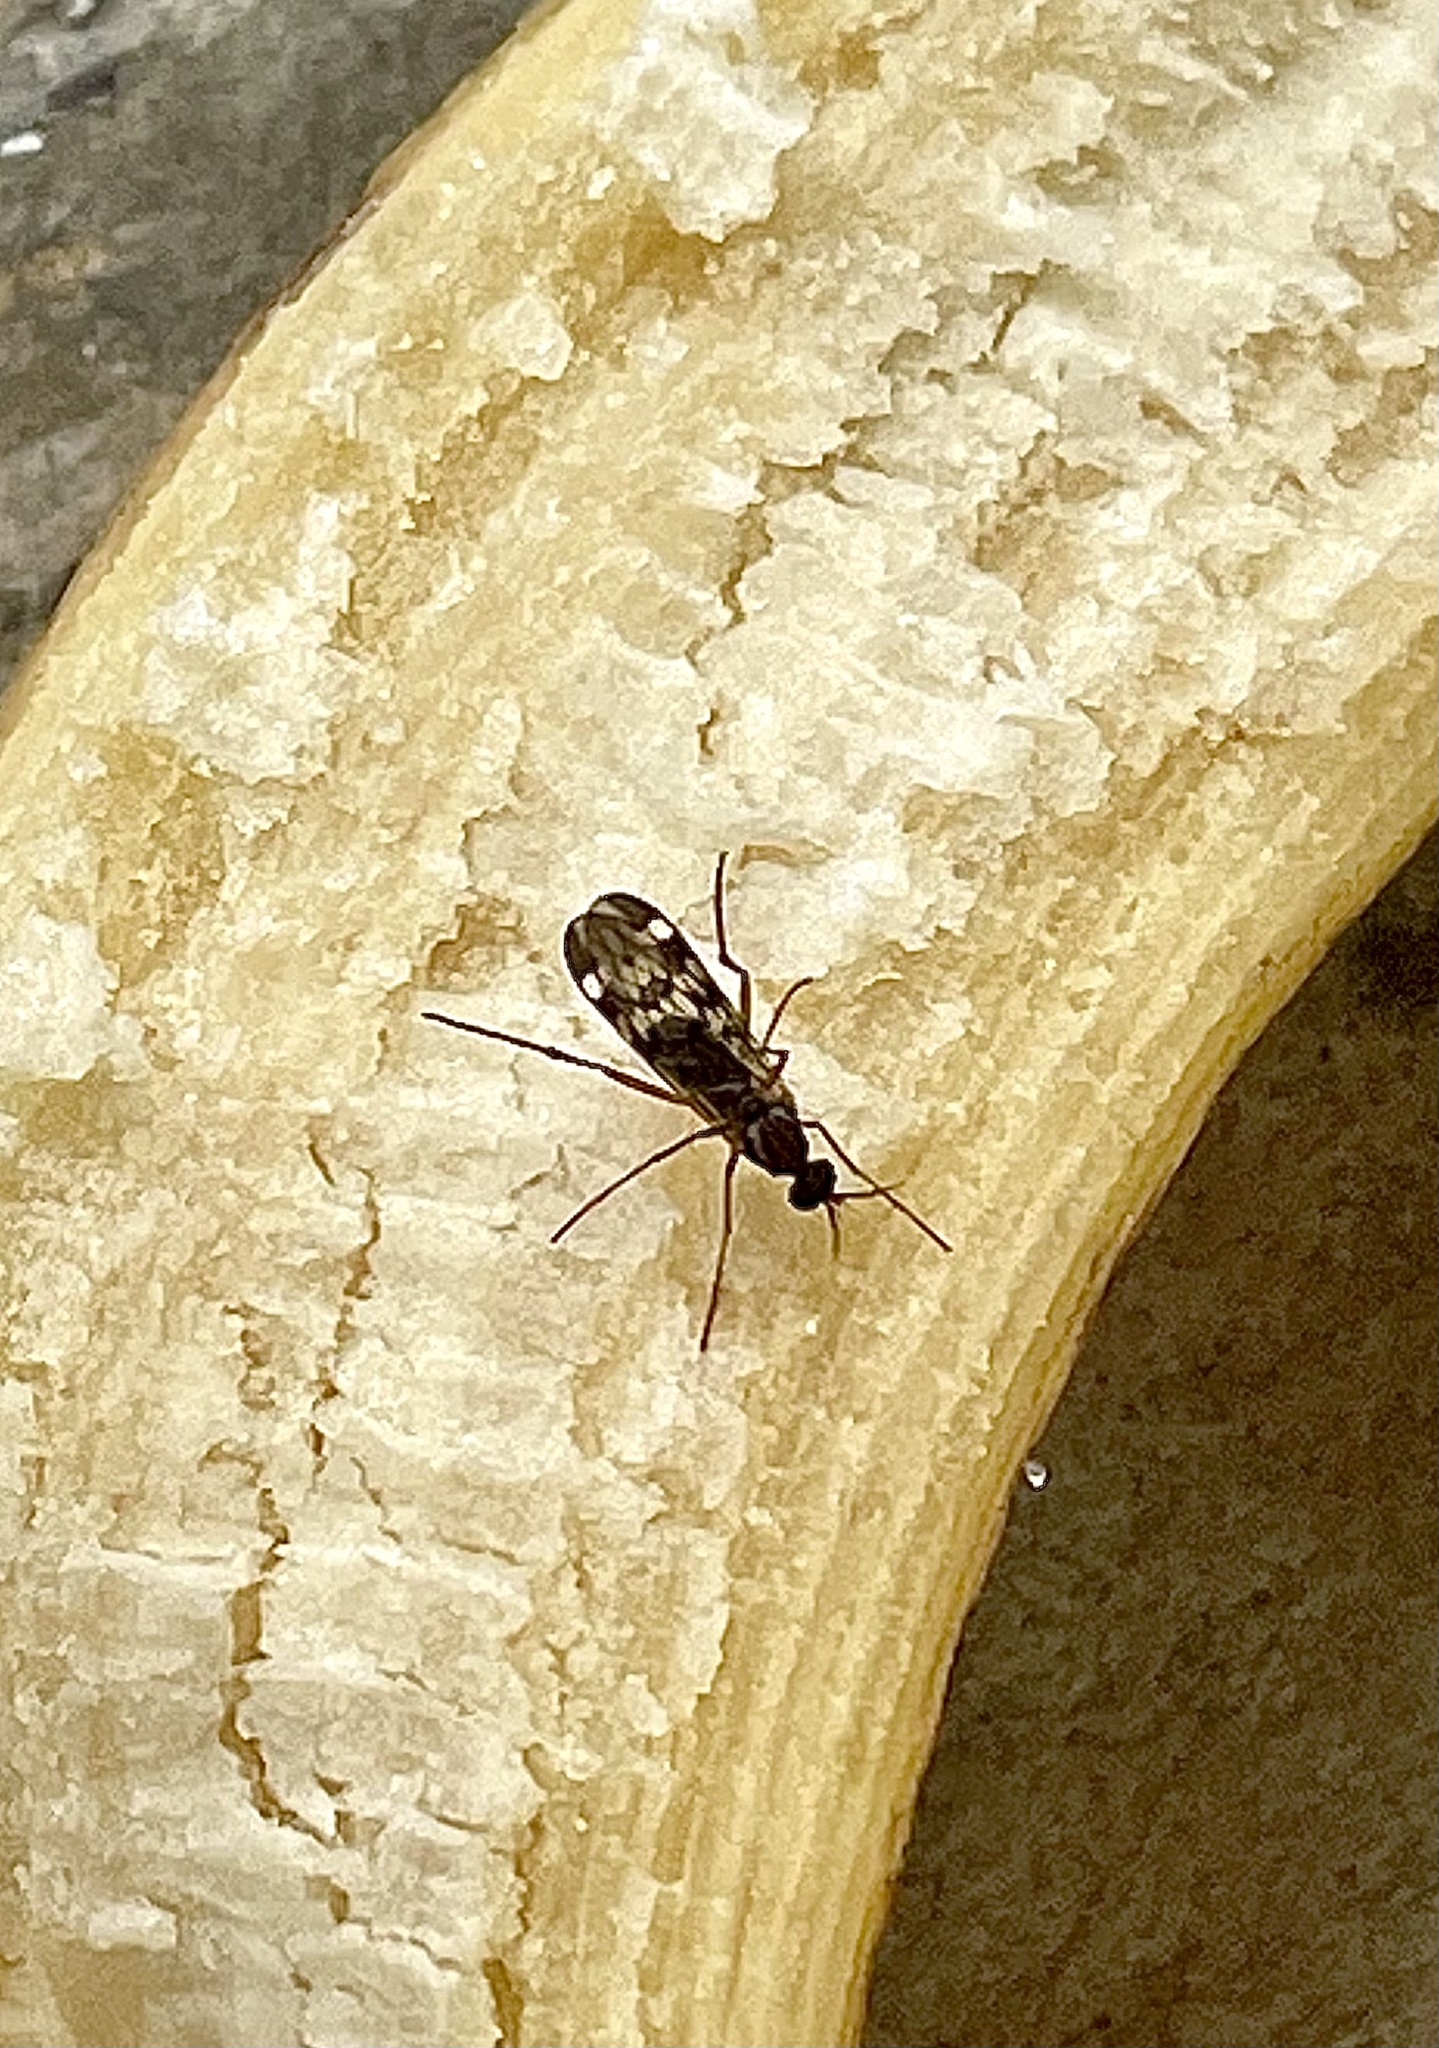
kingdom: Animalia
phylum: Arthropoda
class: Insecta
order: Diptera
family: Anisopodidae
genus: Sylvicola
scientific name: Sylvicola notatus
